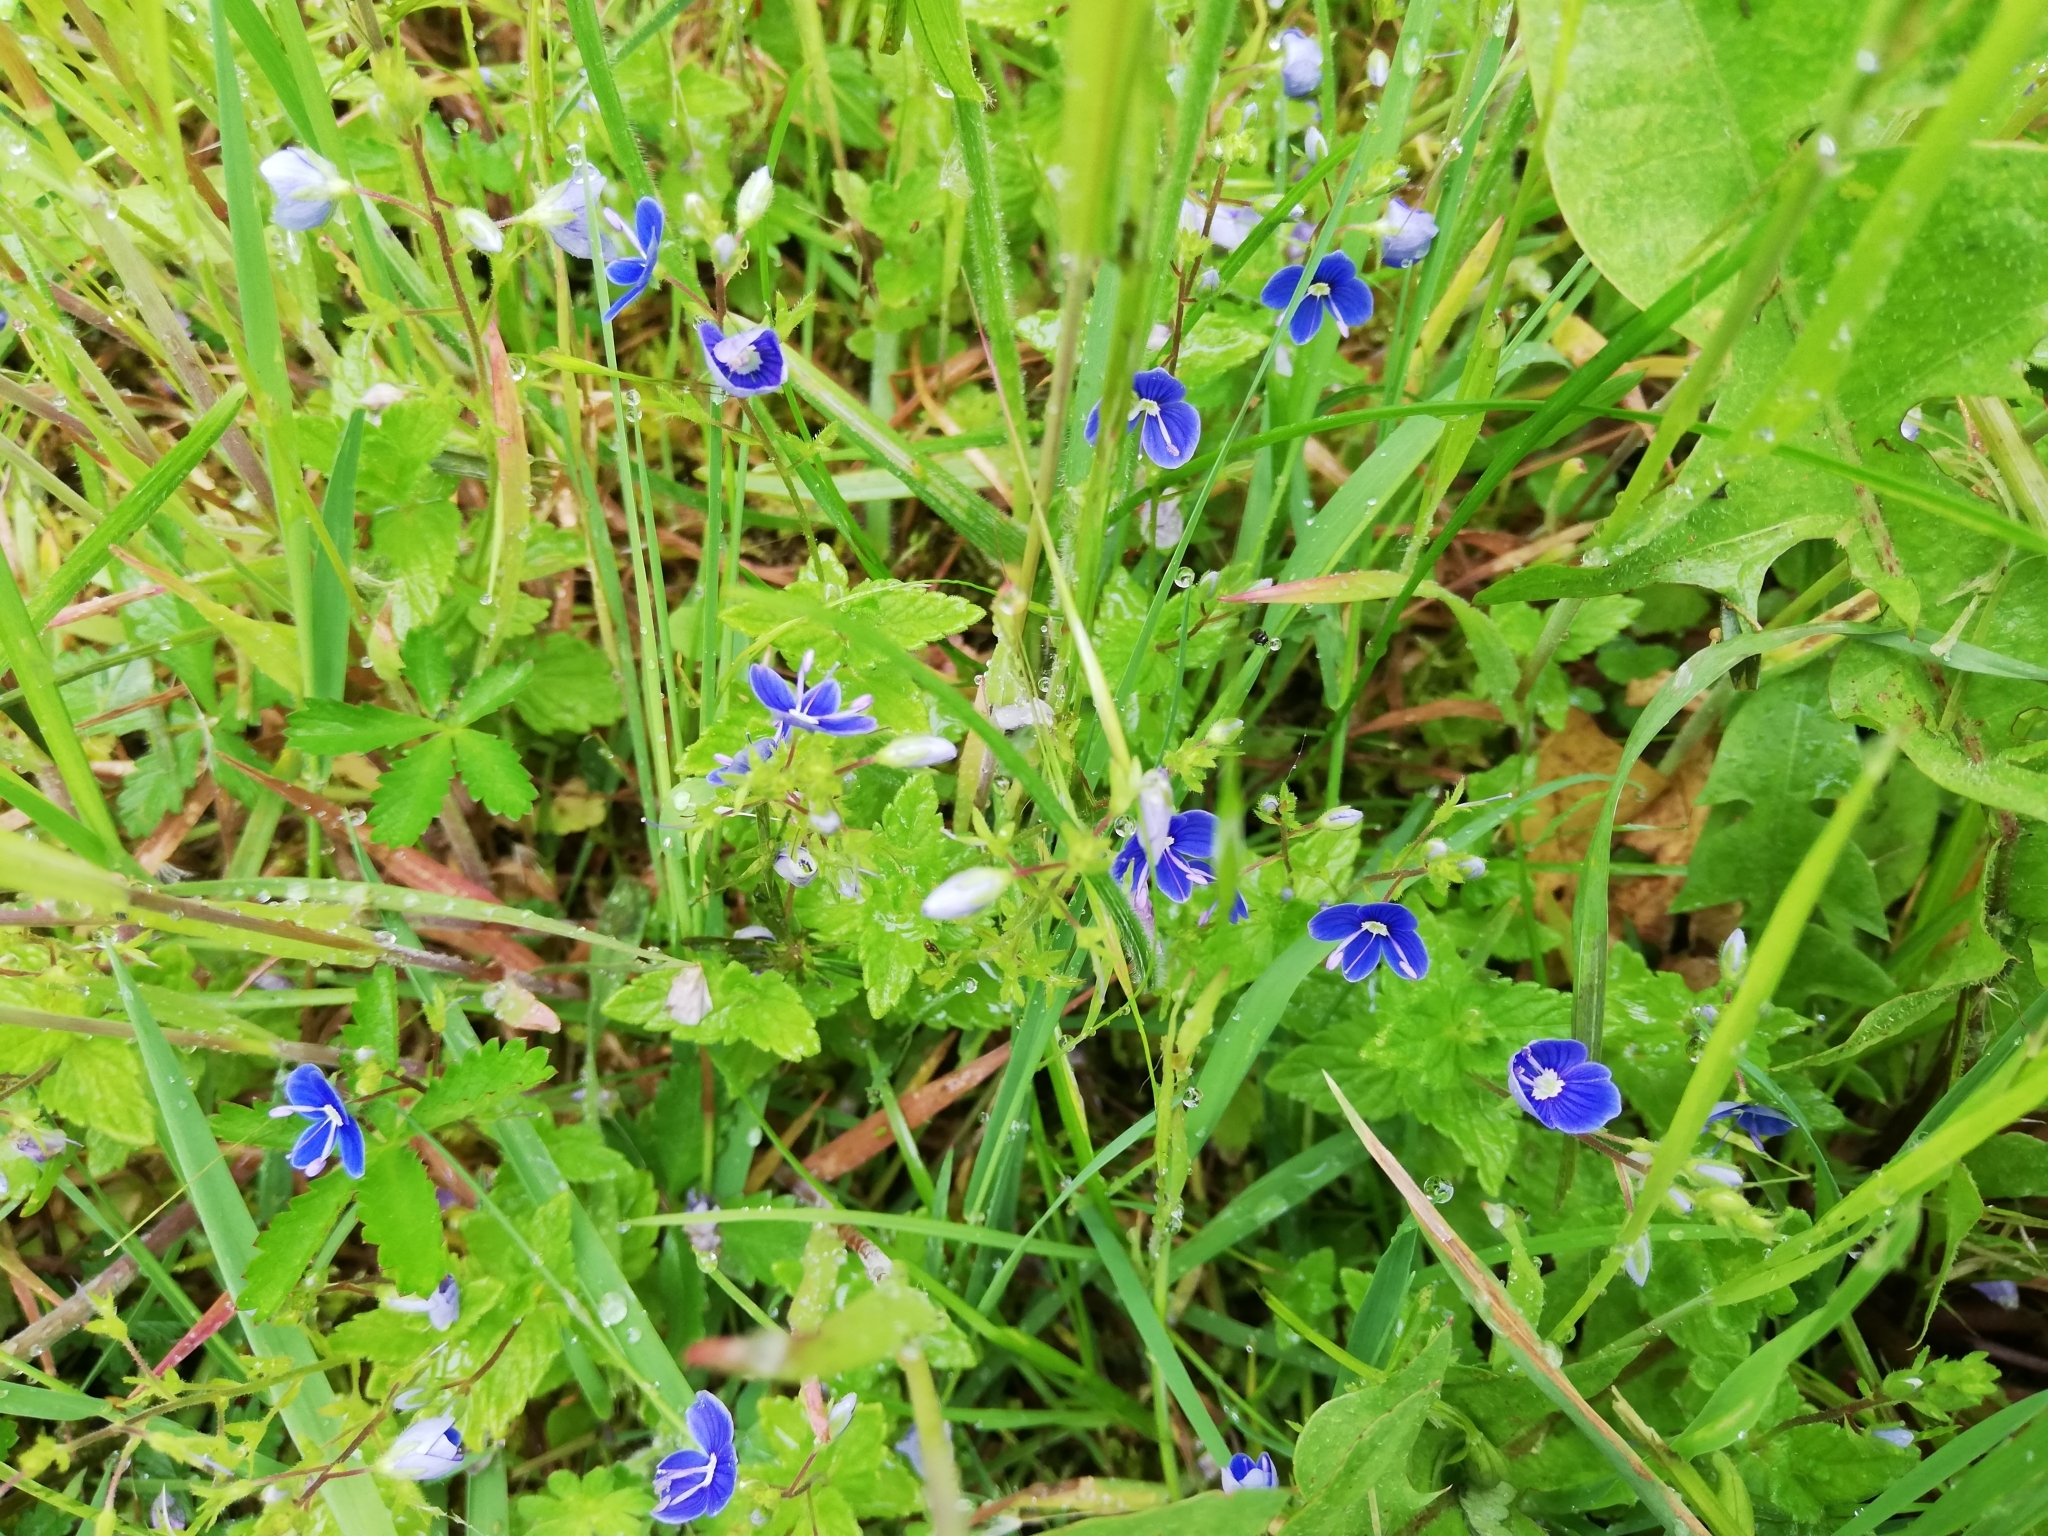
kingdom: Plantae
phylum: Tracheophyta
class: Magnoliopsida
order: Lamiales
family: Plantaginaceae
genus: Veronica
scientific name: Veronica chamaedrys
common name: Germander speedwell
